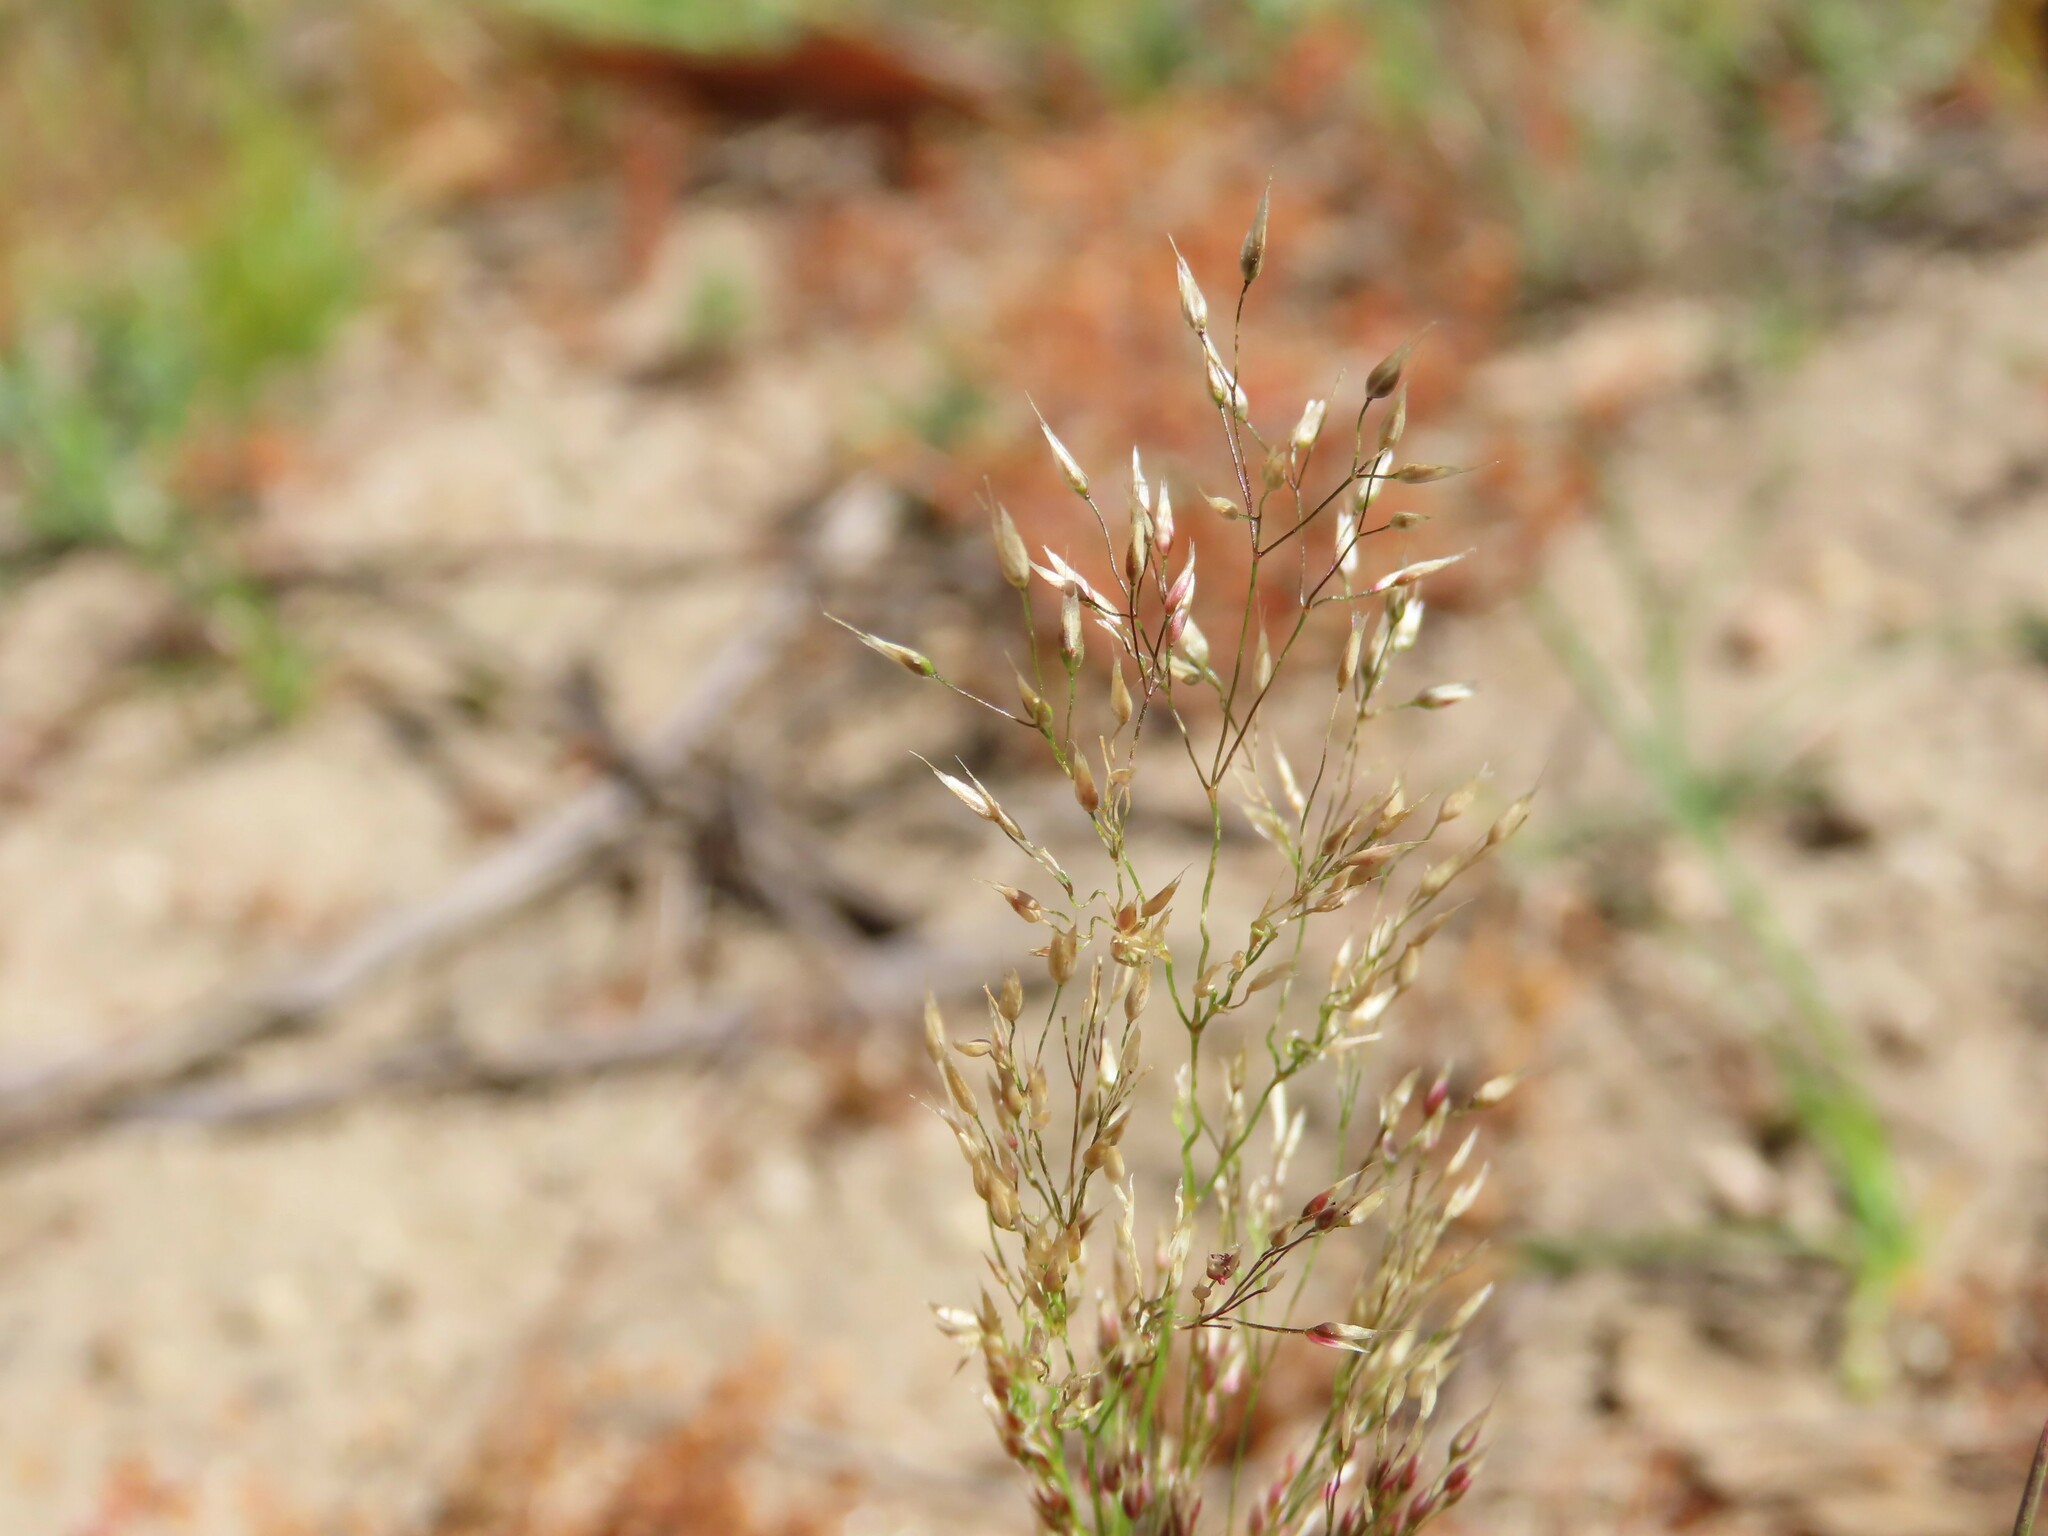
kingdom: Plantae
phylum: Tracheophyta
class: Liliopsida
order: Poales
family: Poaceae
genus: Aira
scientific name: Aira caryophyllea
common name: Silver hairgrass
